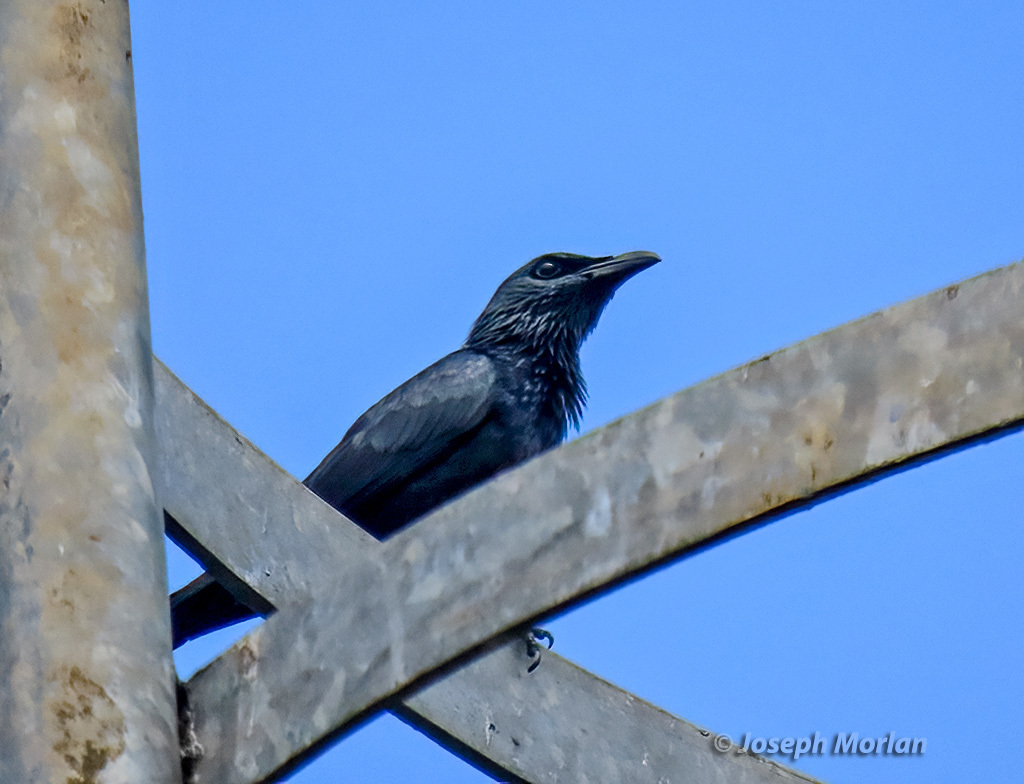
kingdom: Animalia
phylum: Chordata
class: Aves
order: Passeriformes
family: Sturnidae
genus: Aplonis
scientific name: Aplonis mysolensis
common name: Moluccan starling
